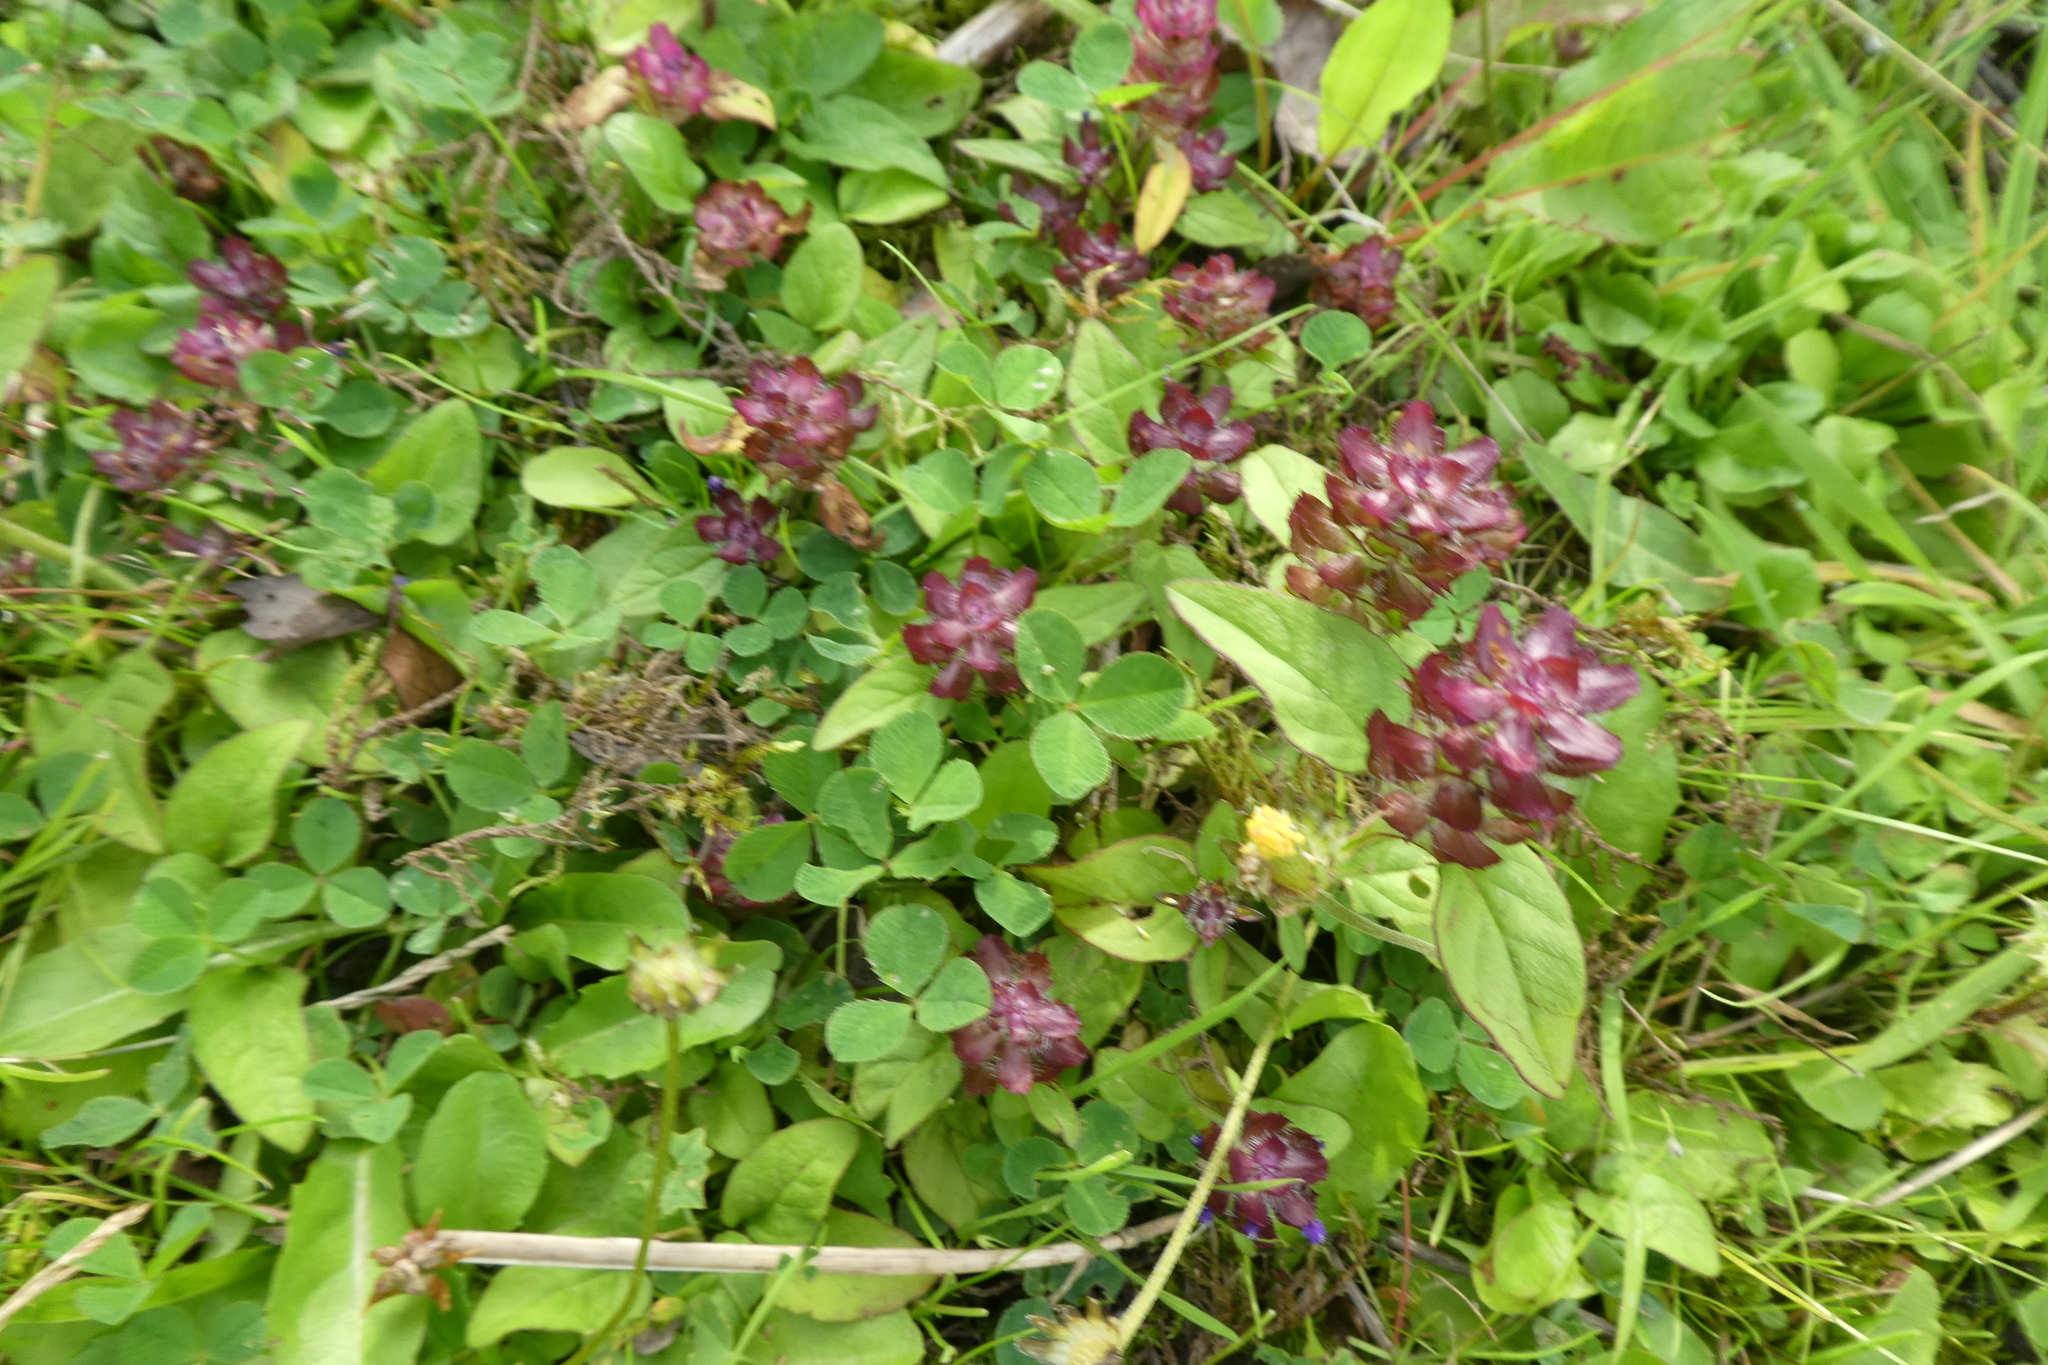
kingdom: Plantae
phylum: Tracheophyta
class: Magnoliopsida
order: Lamiales
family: Lamiaceae
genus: Prunella
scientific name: Prunella vulgaris
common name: Heal-all
